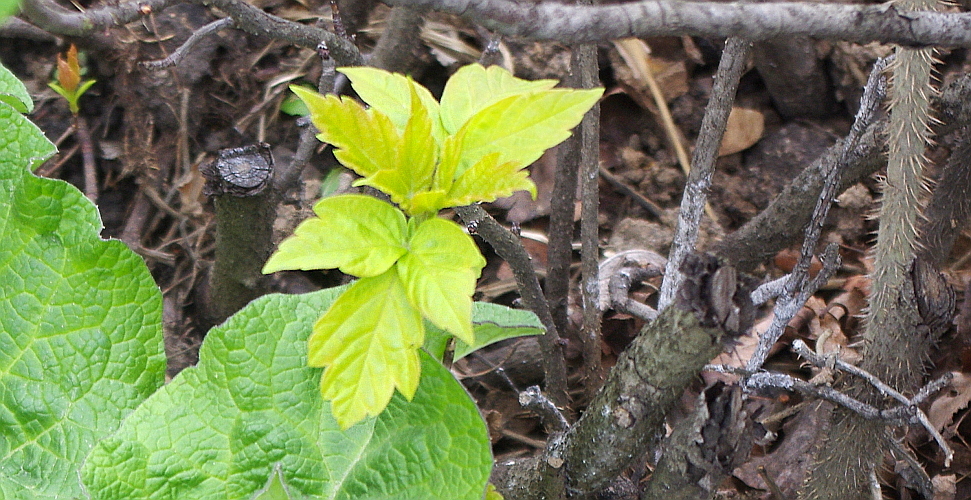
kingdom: Plantae
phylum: Tracheophyta
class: Magnoliopsida
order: Sapindales
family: Sapindaceae
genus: Acer
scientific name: Acer negundo
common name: Ashleaf maple
